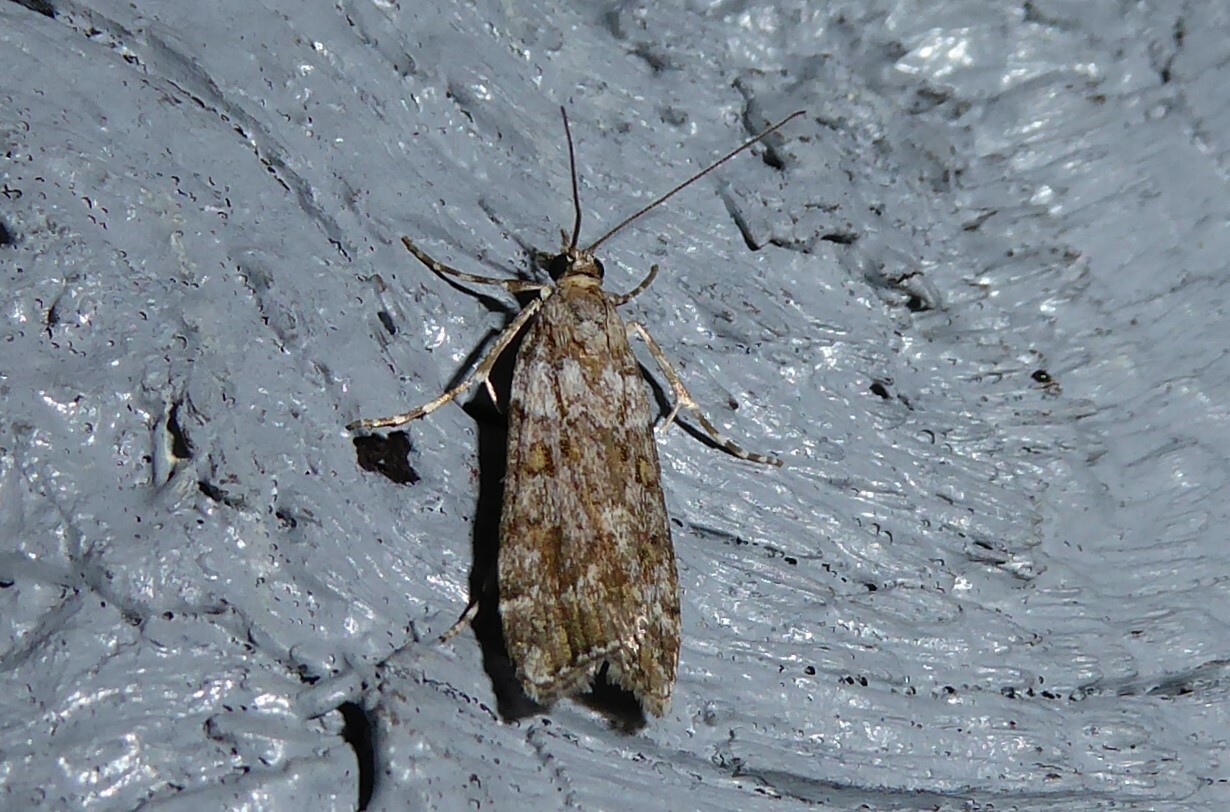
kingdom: Animalia
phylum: Arthropoda
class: Insecta
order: Lepidoptera
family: Crambidae
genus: Scoparia
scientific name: Scoparia tetracycla
